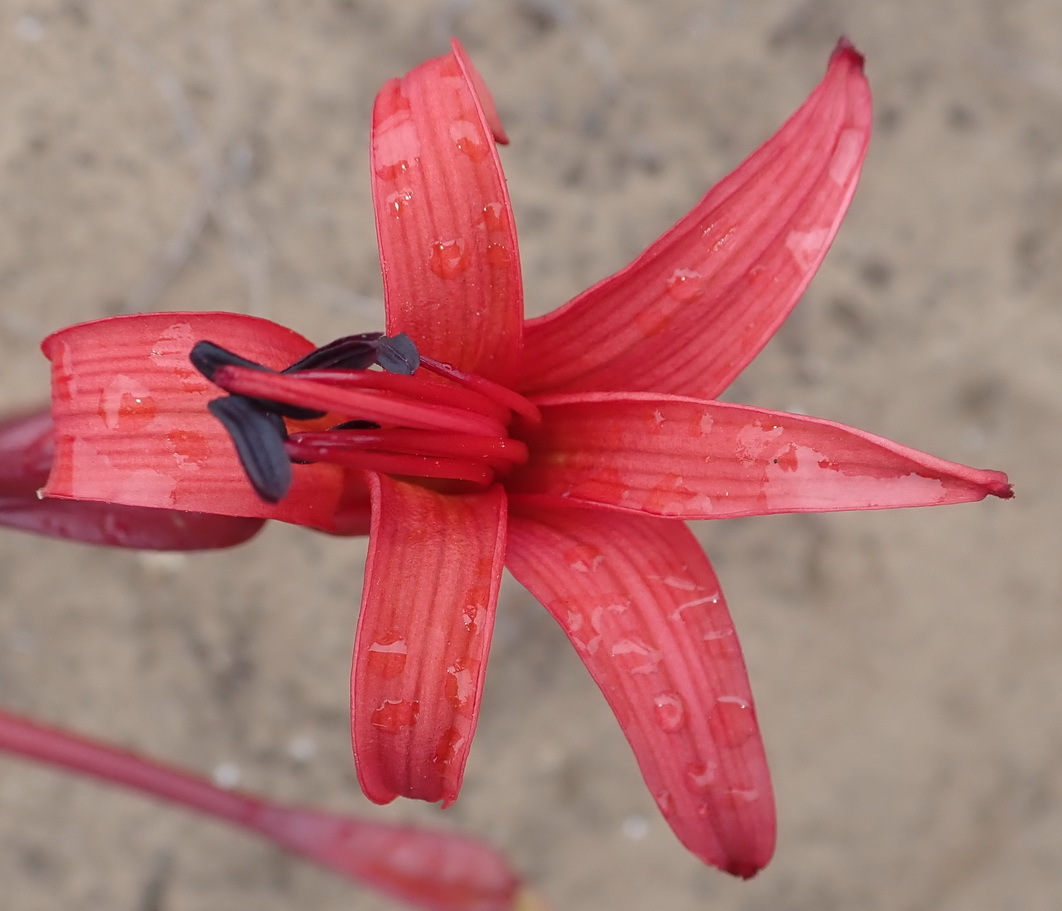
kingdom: Plantae
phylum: Tracheophyta
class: Liliopsida
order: Asparagales
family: Amaryllidaceae
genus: Brunsvigia
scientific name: Brunsvigia orientalis
